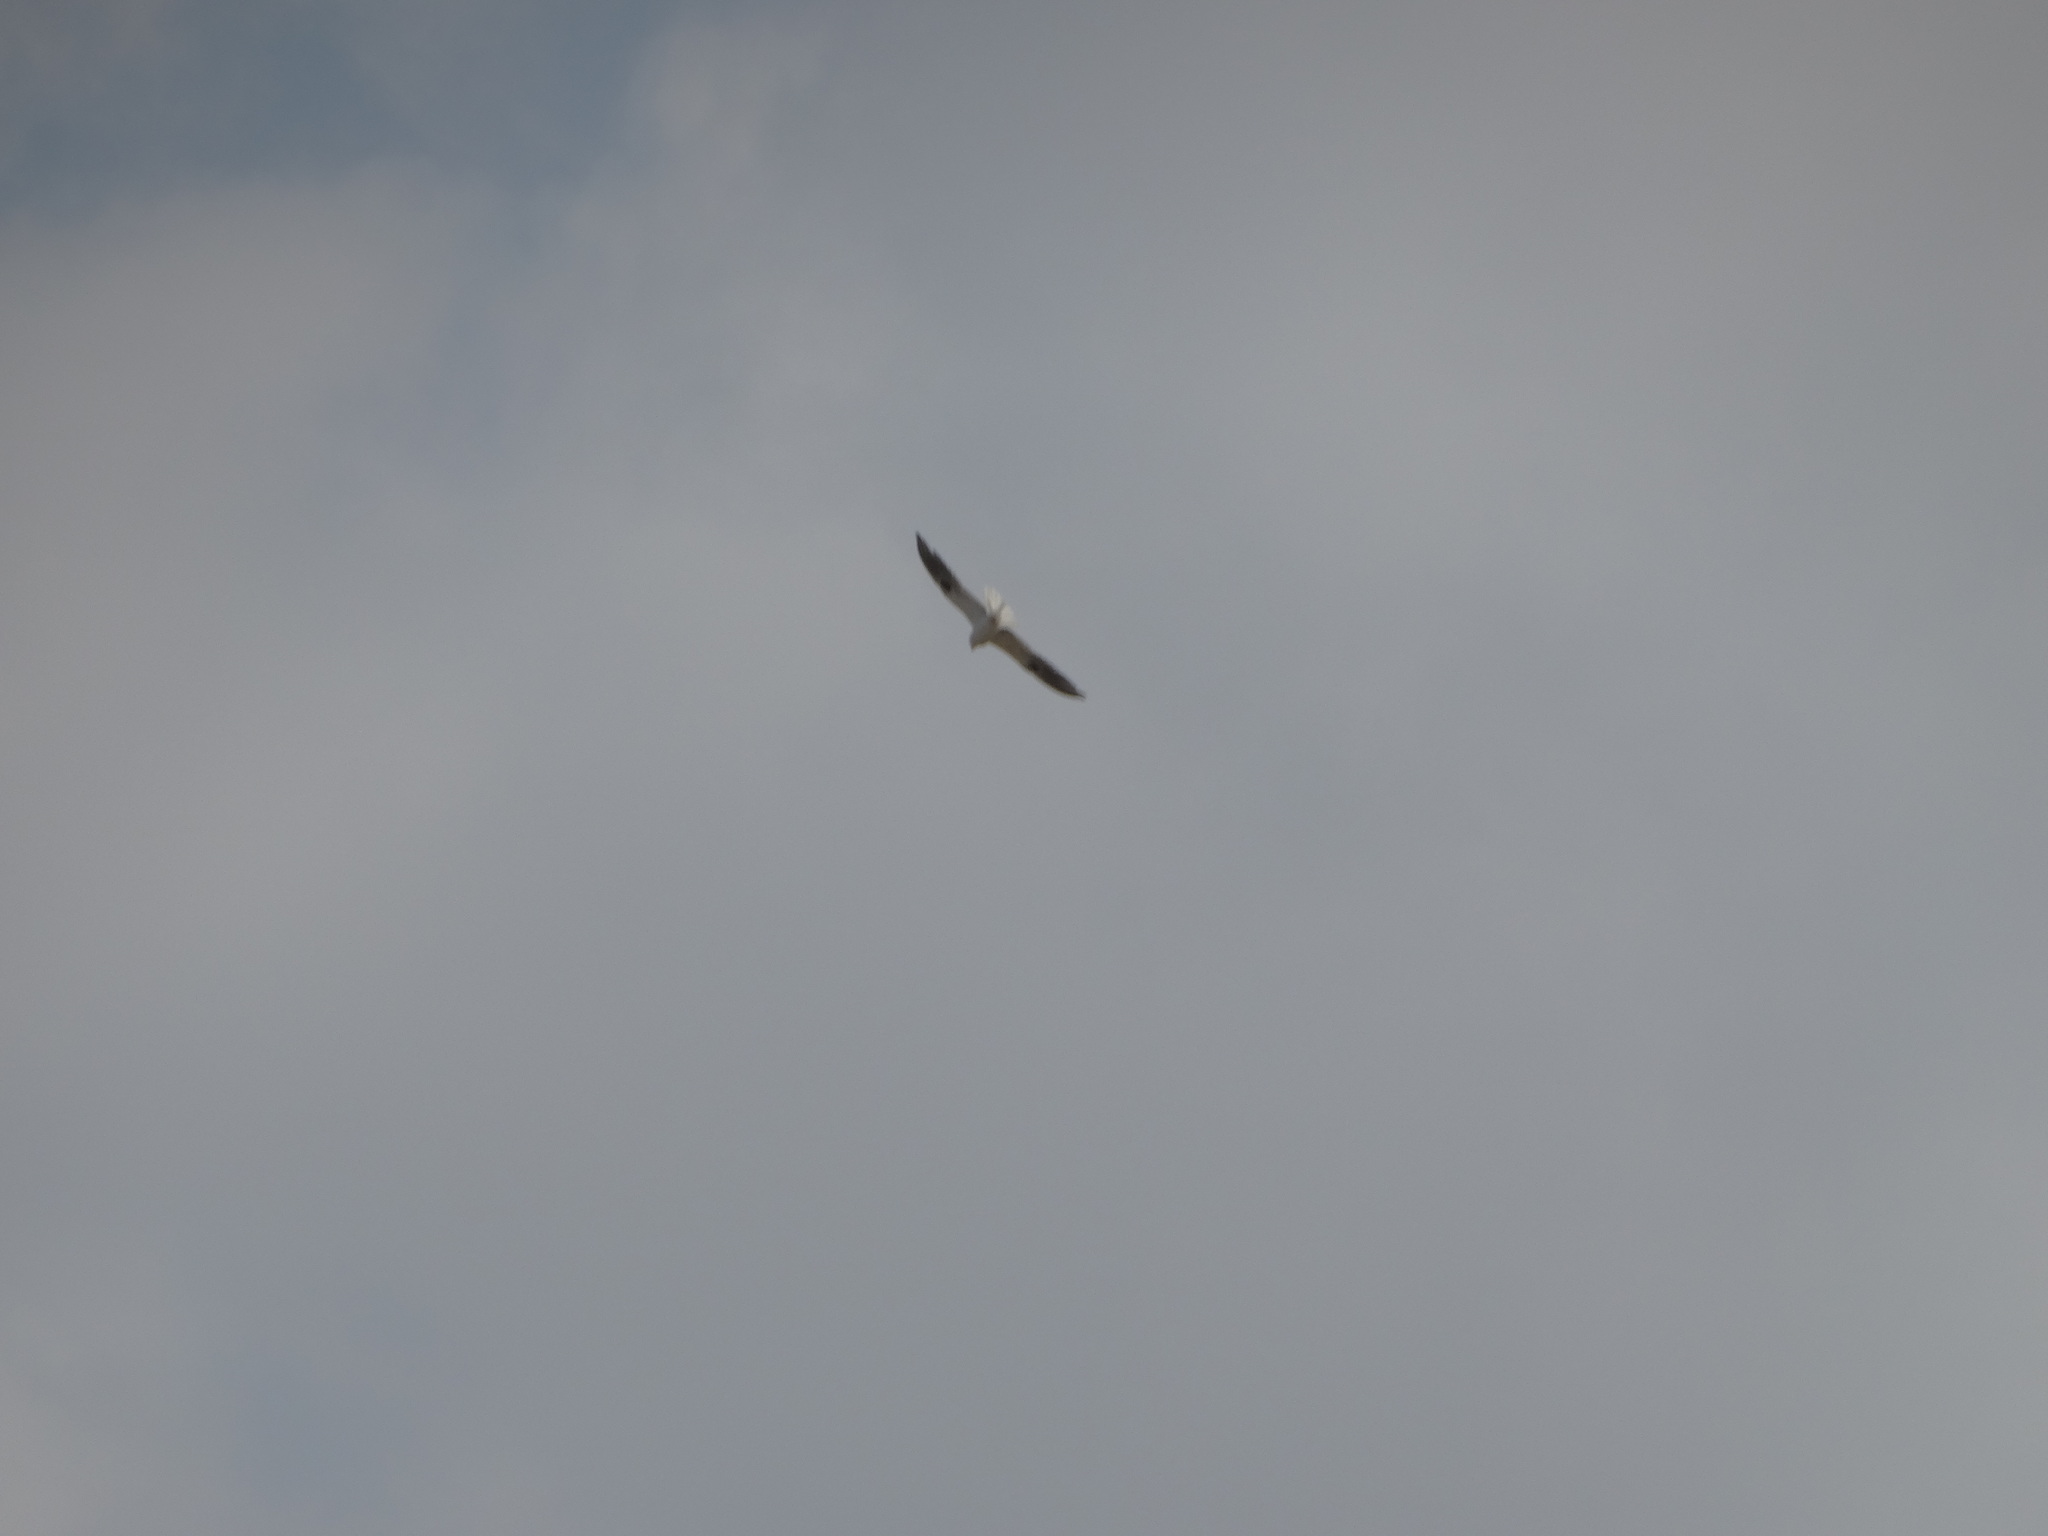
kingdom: Animalia
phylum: Chordata
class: Aves
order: Accipitriformes
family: Accipitridae
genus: Elanus
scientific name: Elanus leucurus
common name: White-tailed kite
